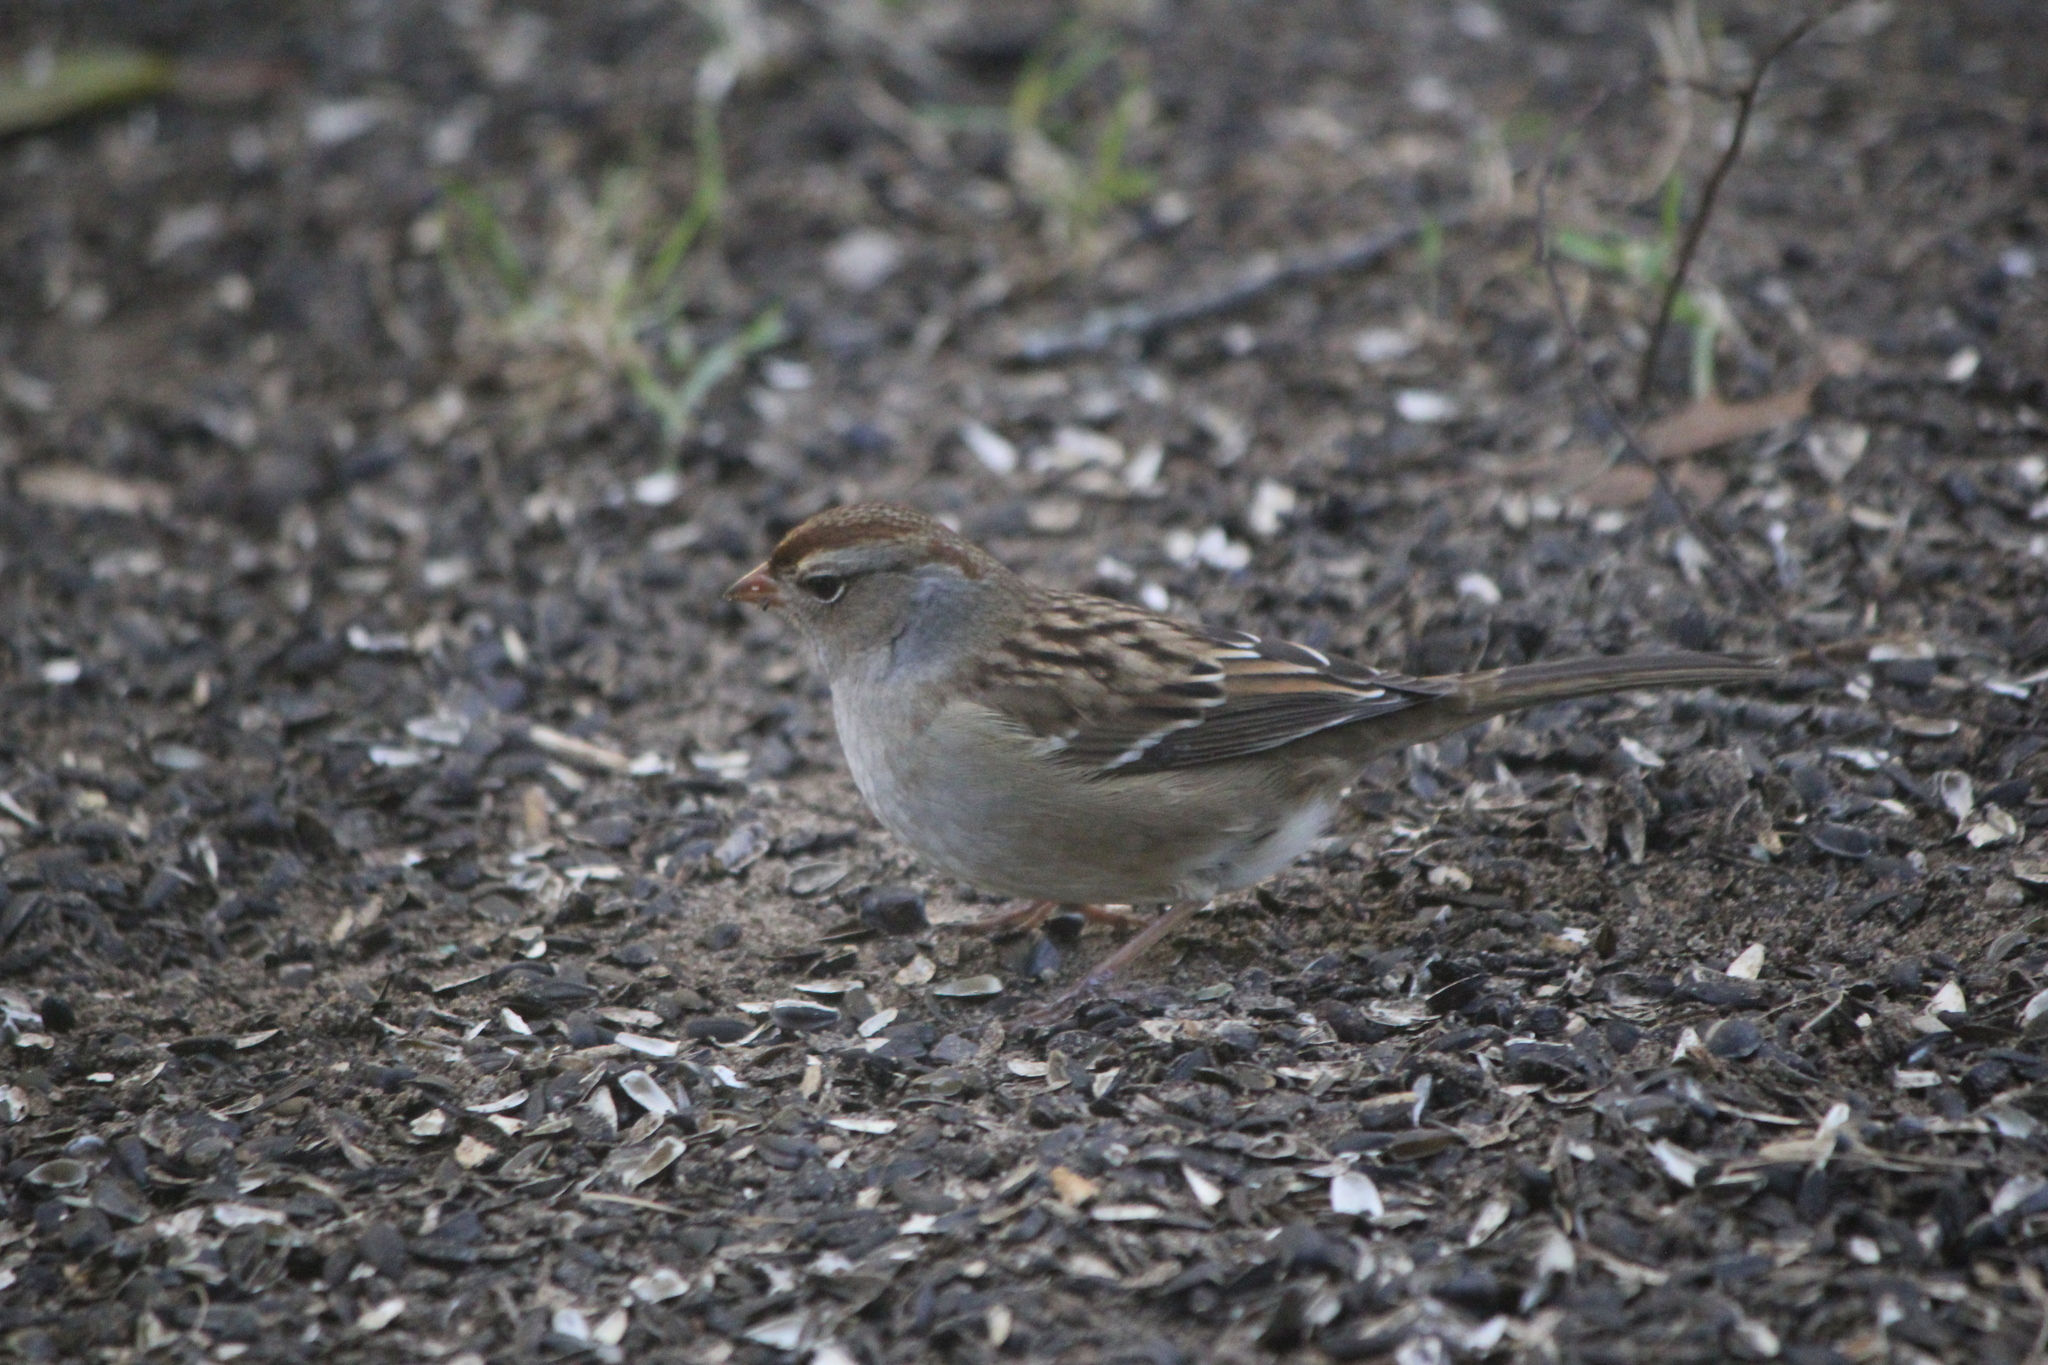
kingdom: Animalia
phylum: Chordata
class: Aves
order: Passeriformes
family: Passerellidae
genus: Zonotrichia
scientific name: Zonotrichia leucophrys
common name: White-crowned sparrow
